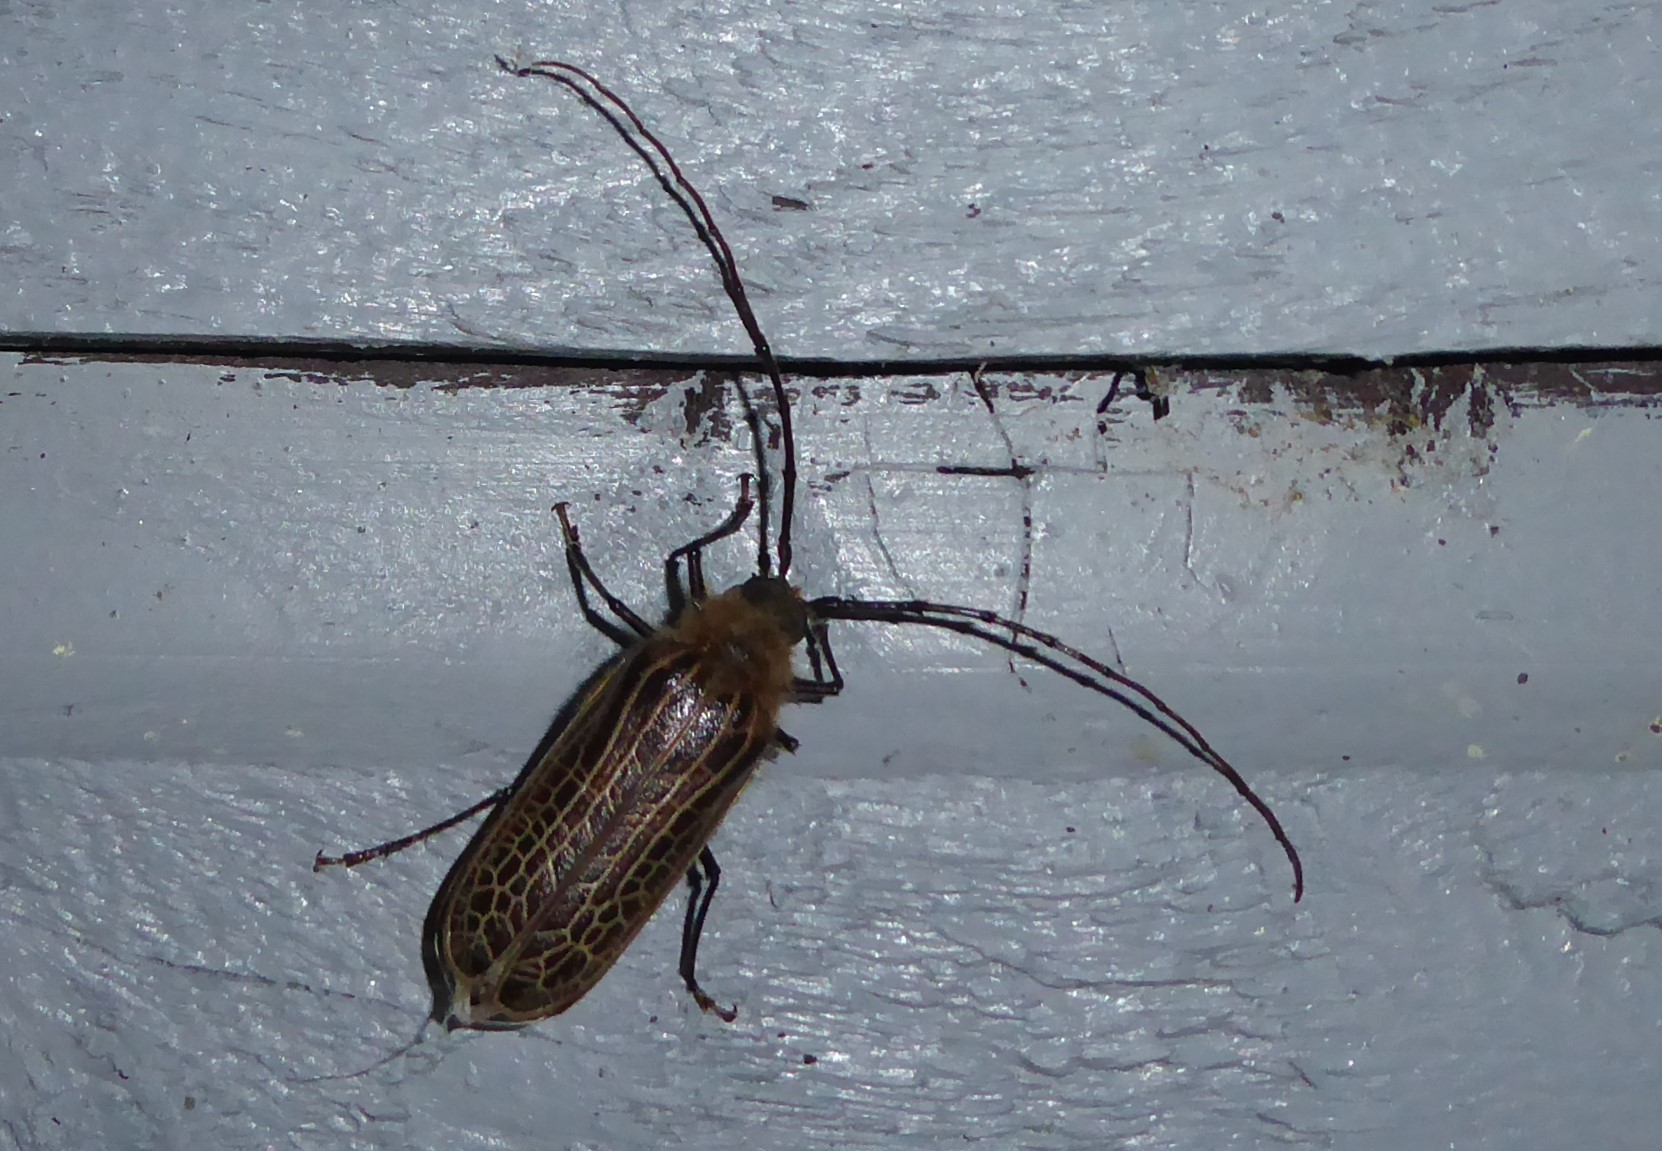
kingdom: Animalia
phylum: Arthropoda
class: Insecta
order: Coleoptera
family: Cerambycidae
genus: Prionoplus
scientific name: Prionoplus reticularis
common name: Huhu beetle
